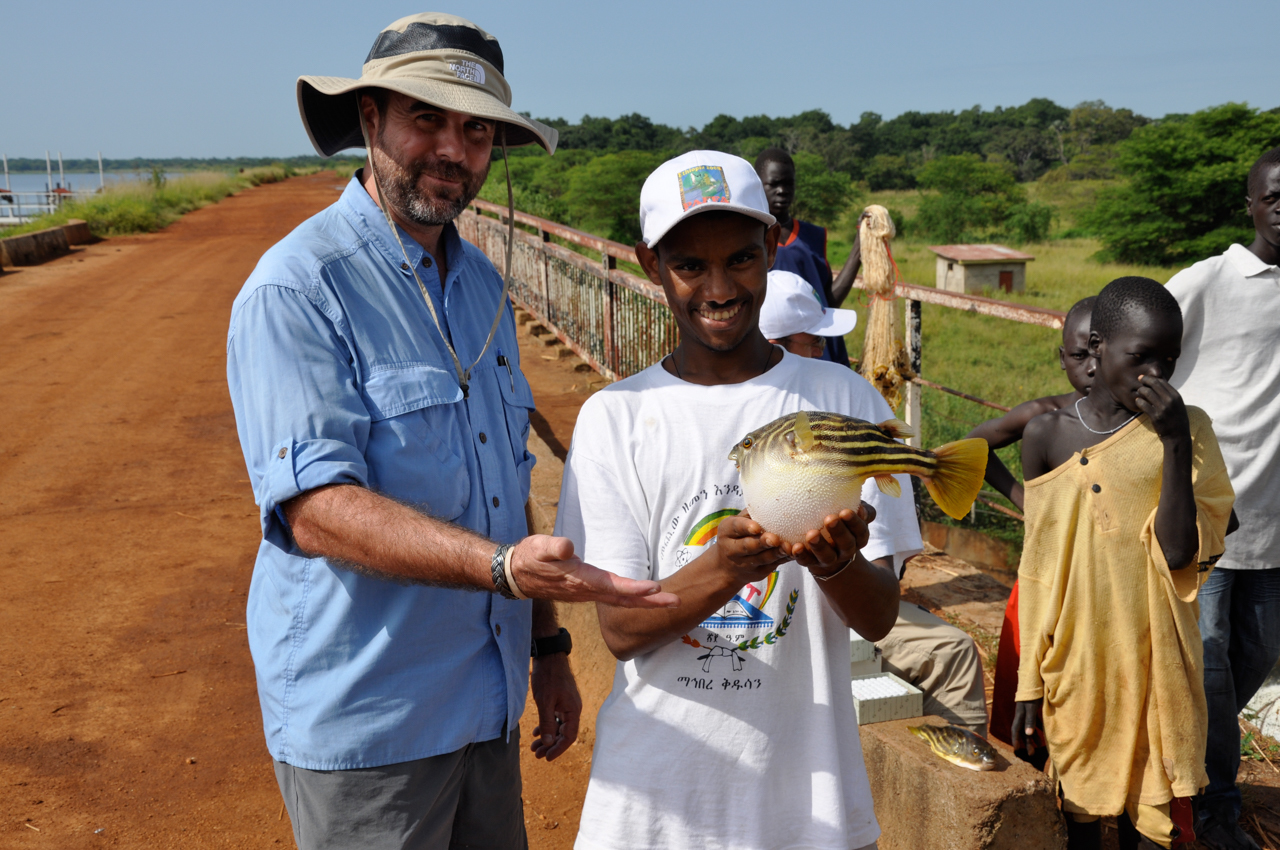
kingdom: Animalia
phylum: Chordata
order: Tetraodontiformes
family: Tetraodontidae
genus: Tetraodon
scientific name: Tetraodon lineatus
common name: Coral butterfly
